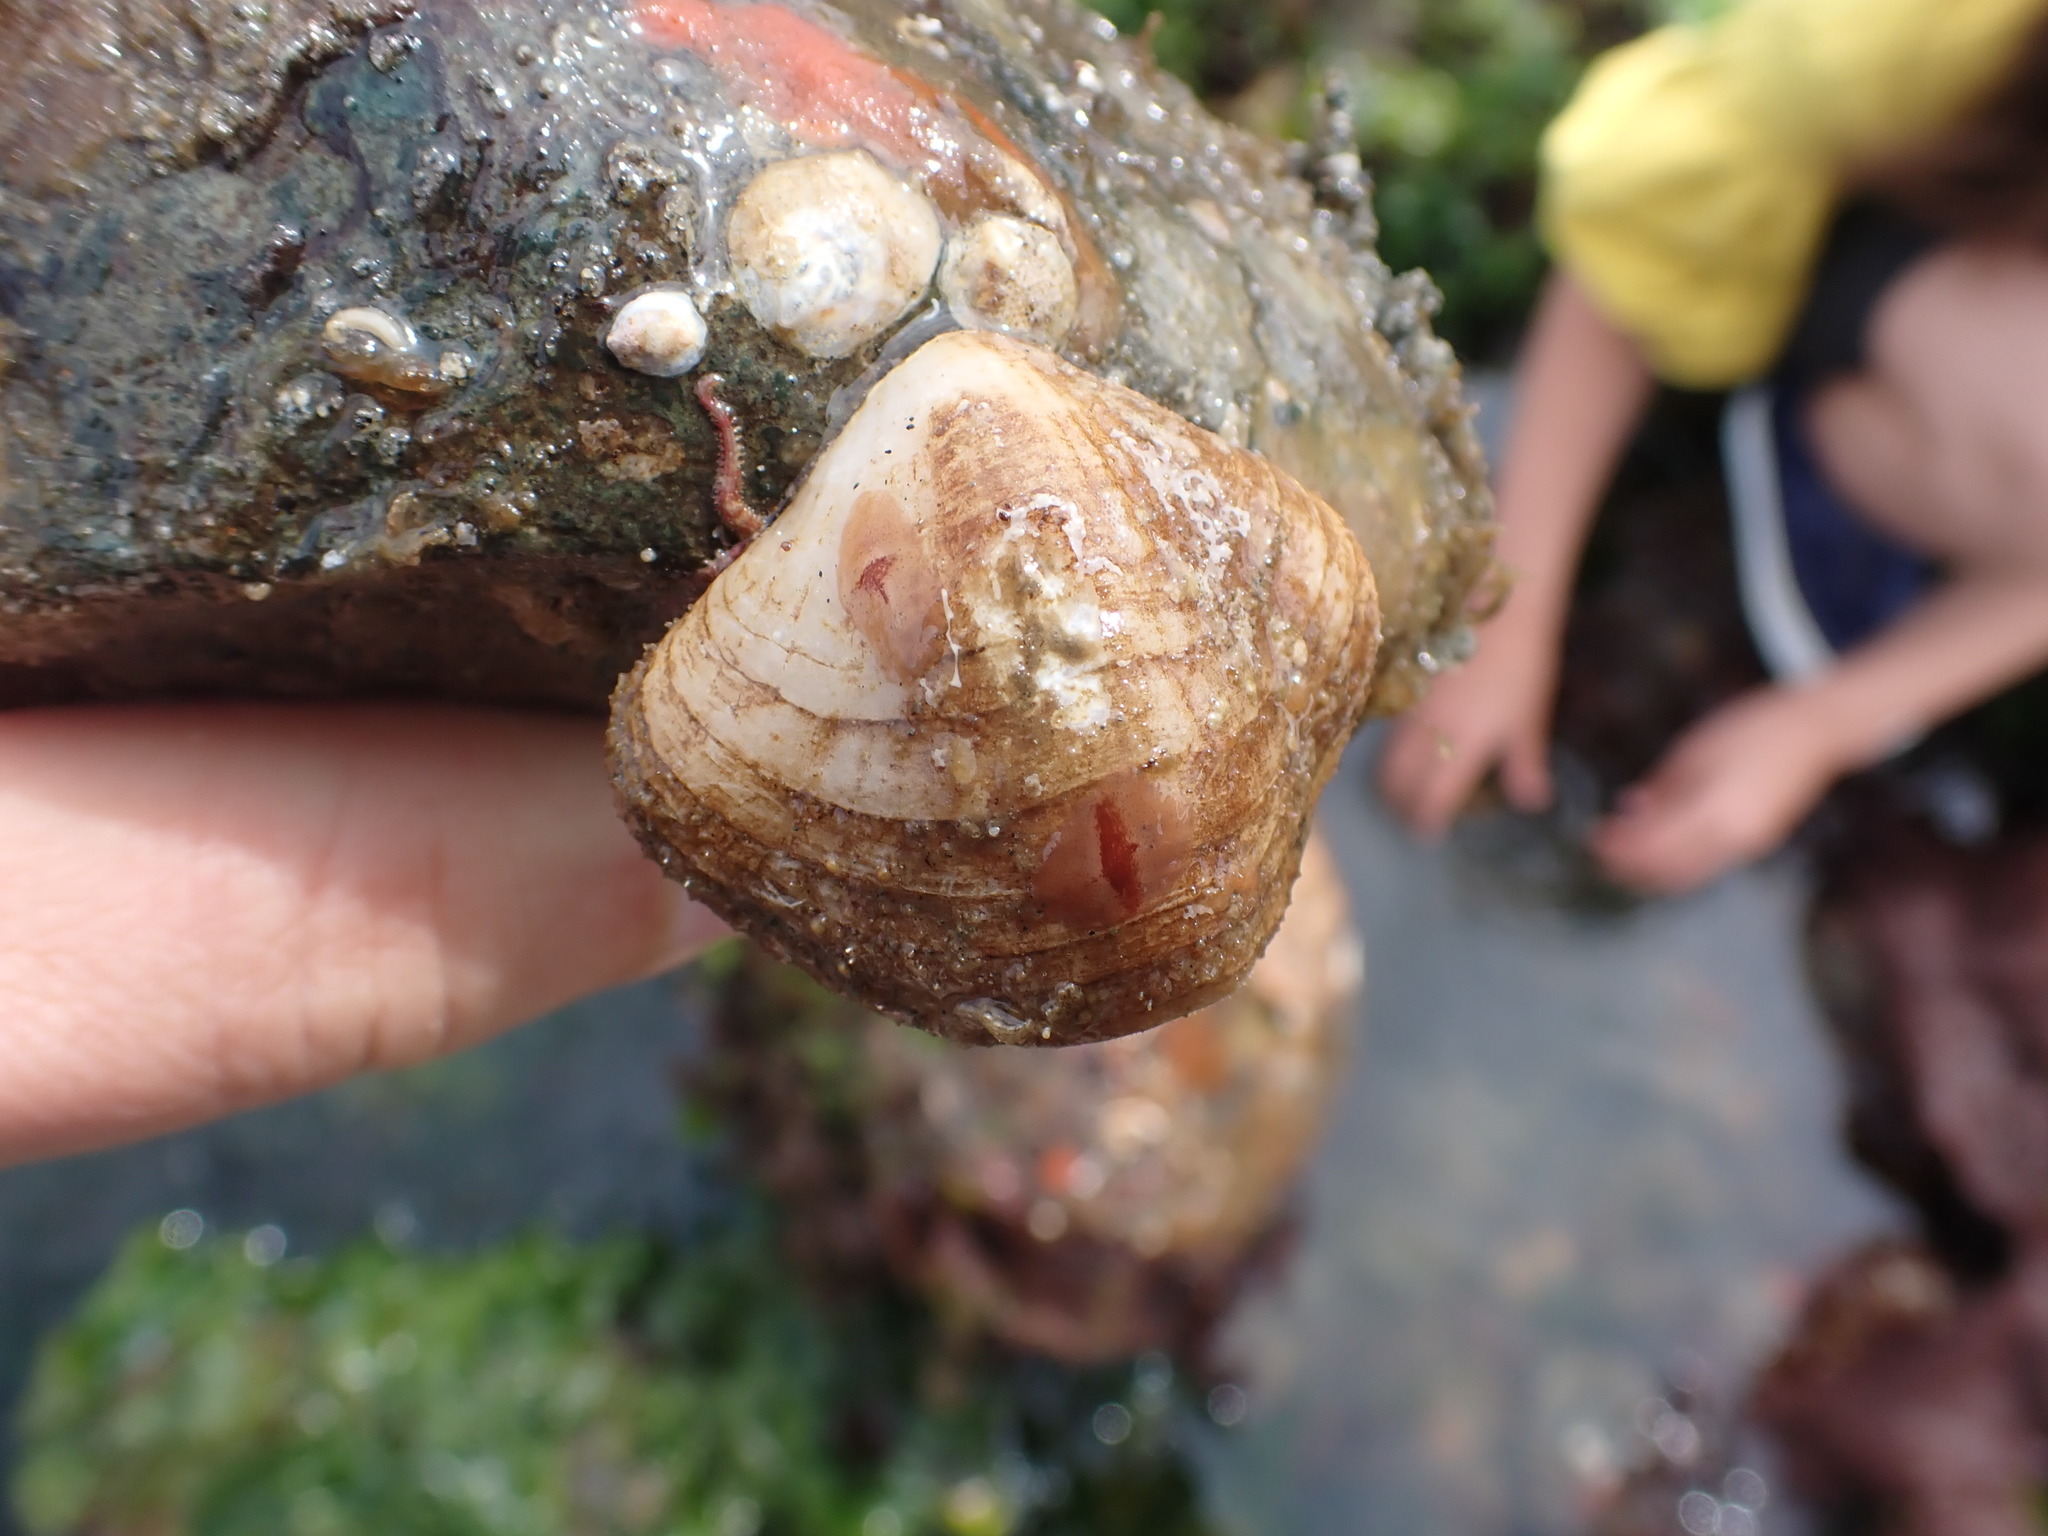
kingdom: Animalia
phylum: Brachiopoda
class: Rhynchonellata
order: Terebratulida
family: Terebrataliidae
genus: Terebratalia
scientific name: Terebratalia transversa
